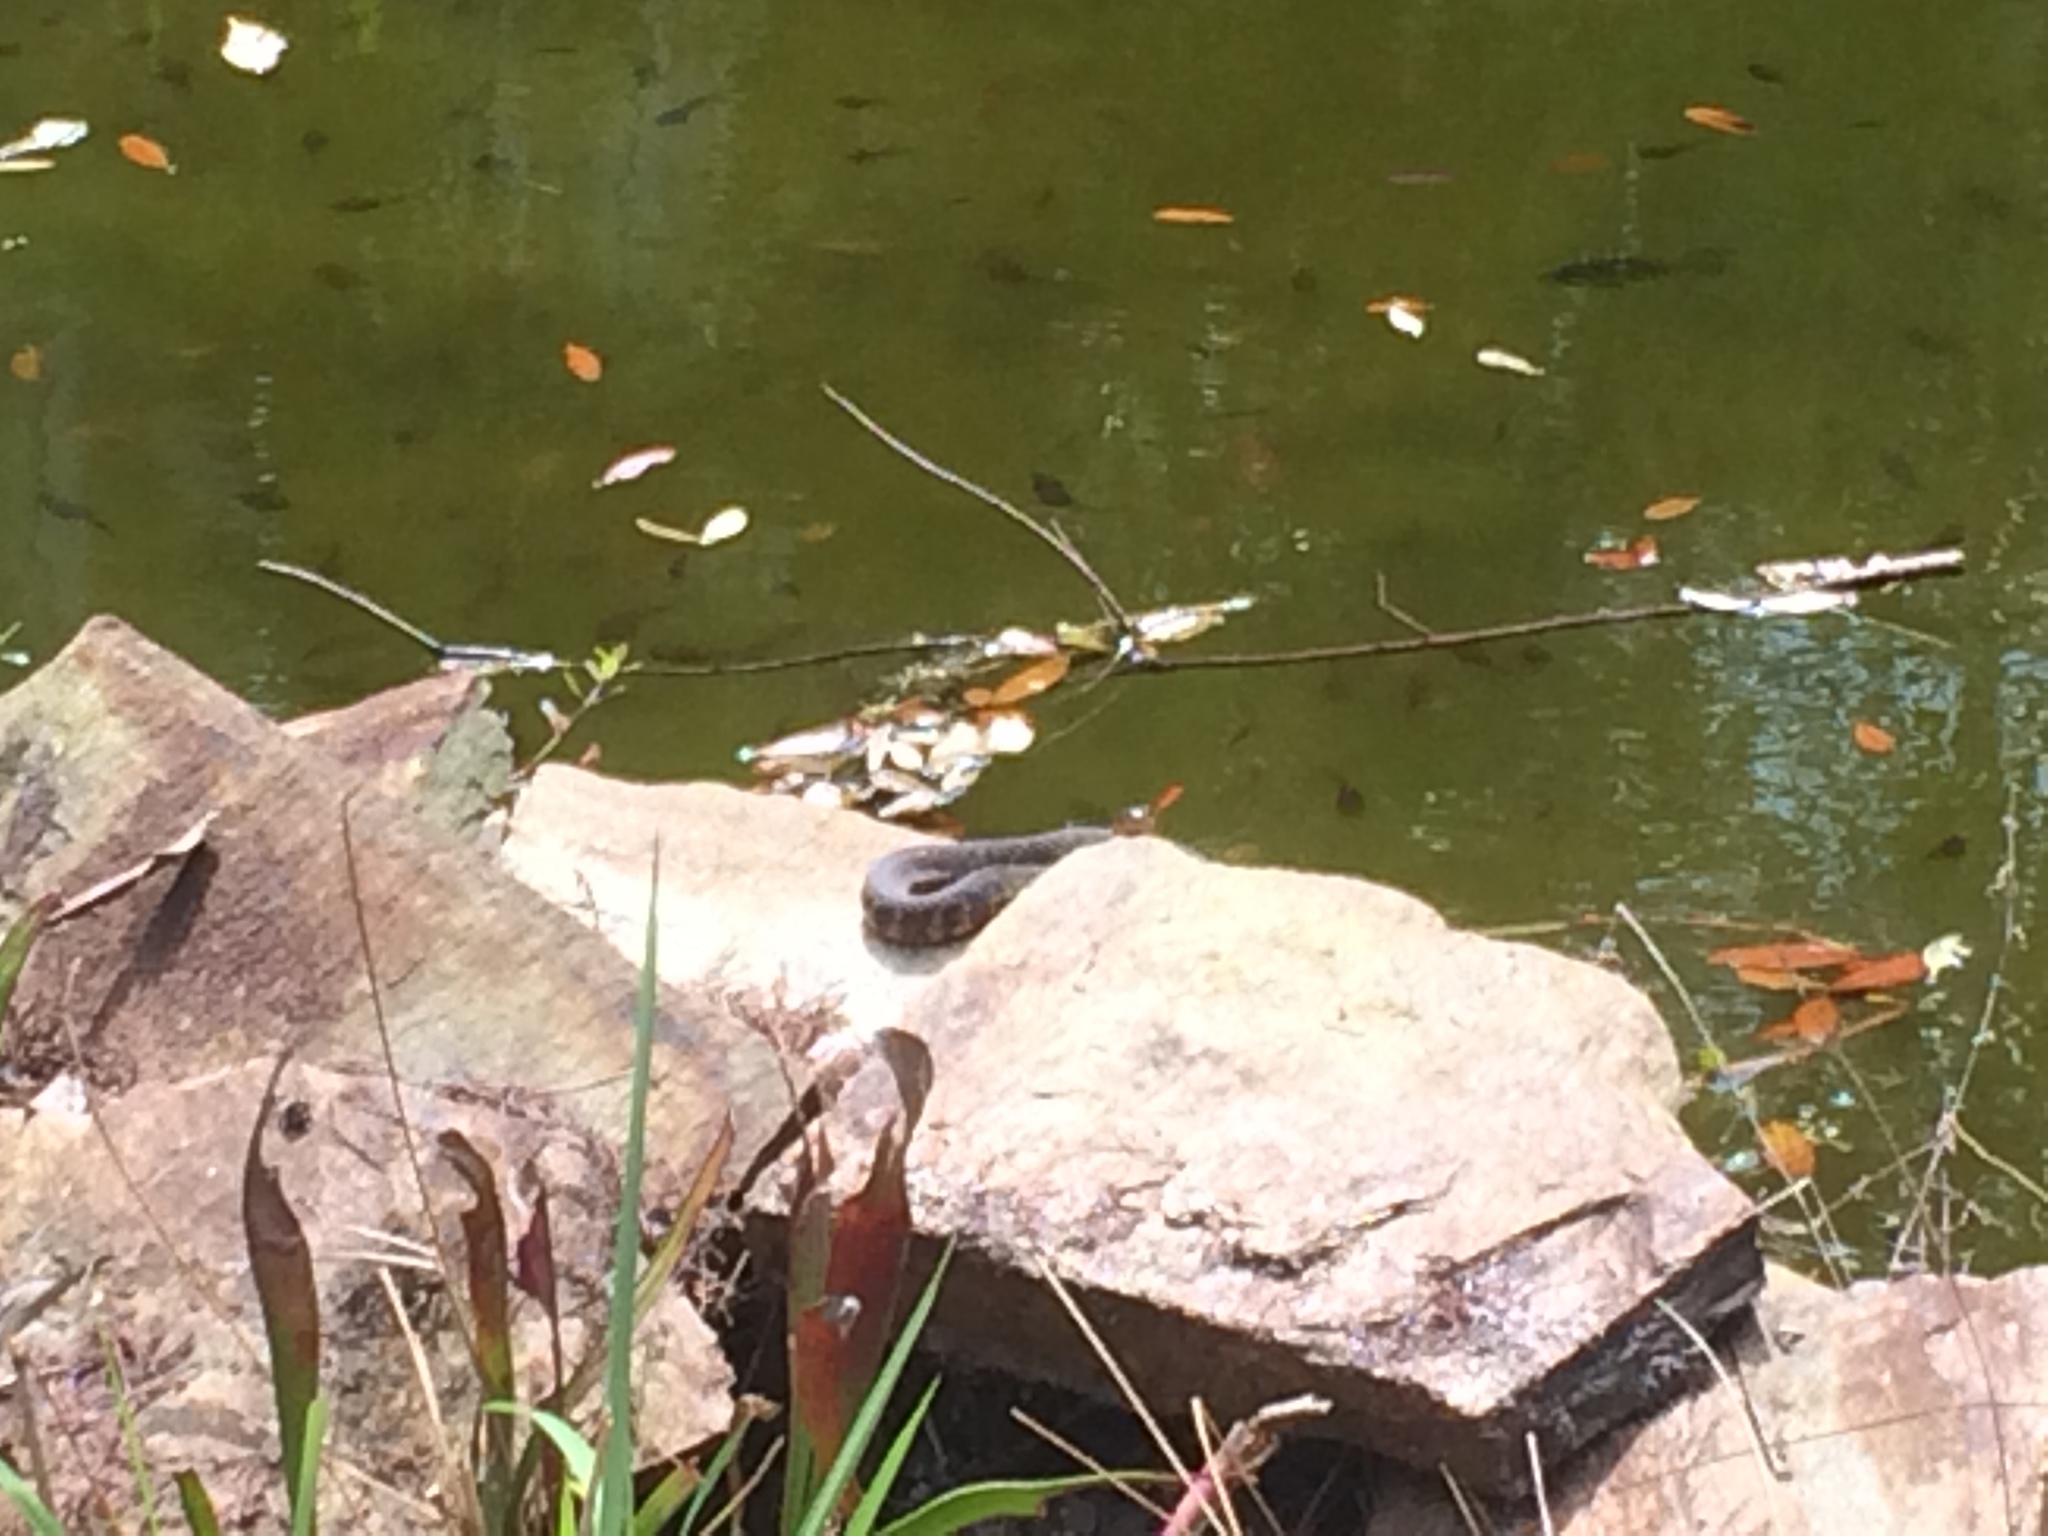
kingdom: Animalia
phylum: Chordata
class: Squamata
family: Colubridae
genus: Nerodia
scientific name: Nerodia fasciata
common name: Southern water snake
